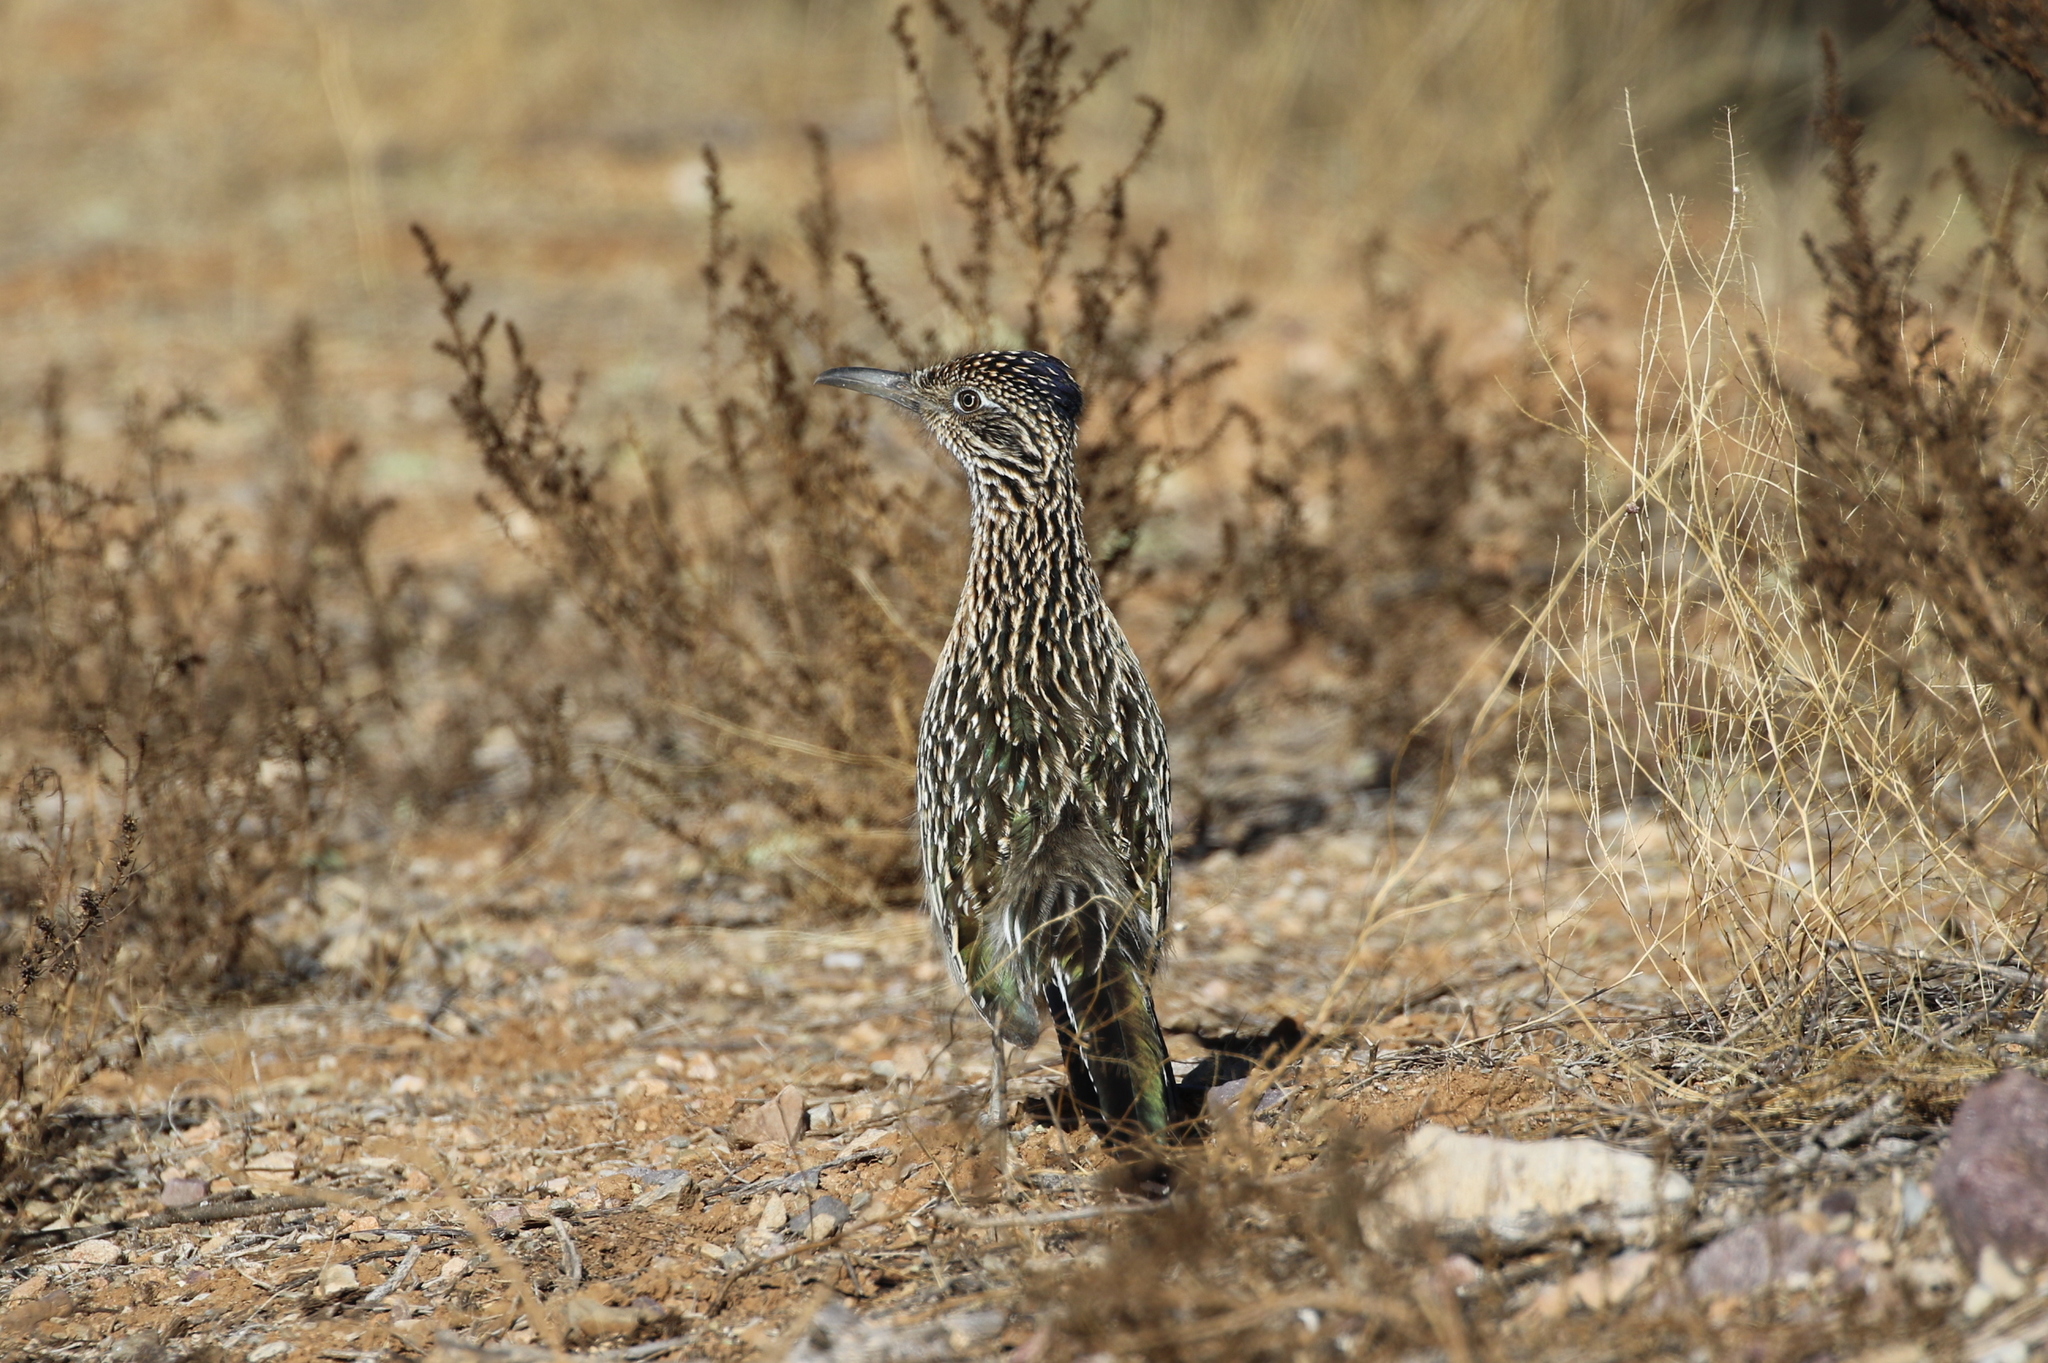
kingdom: Animalia
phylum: Chordata
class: Aves
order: Cuculiformes
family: Cuculidae
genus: Geococcyx
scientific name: Geococcyx californianus
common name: Greater roadrunner
